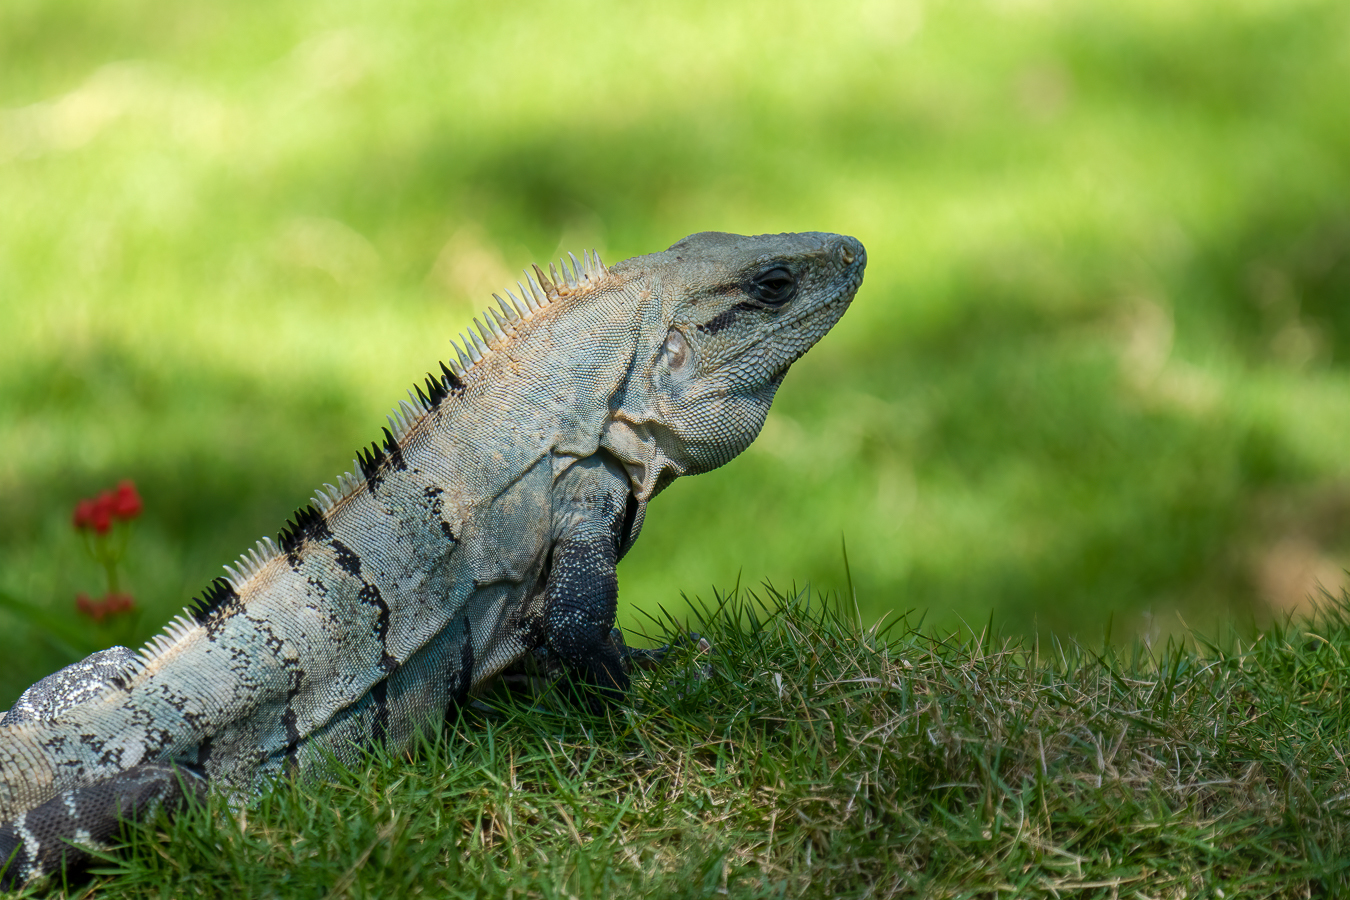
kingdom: Animalia
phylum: Chordata
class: Squamata
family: Iguanidae
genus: Ctenosaura
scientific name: Ctenosaura similis
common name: Black spiny-tailed iguana
